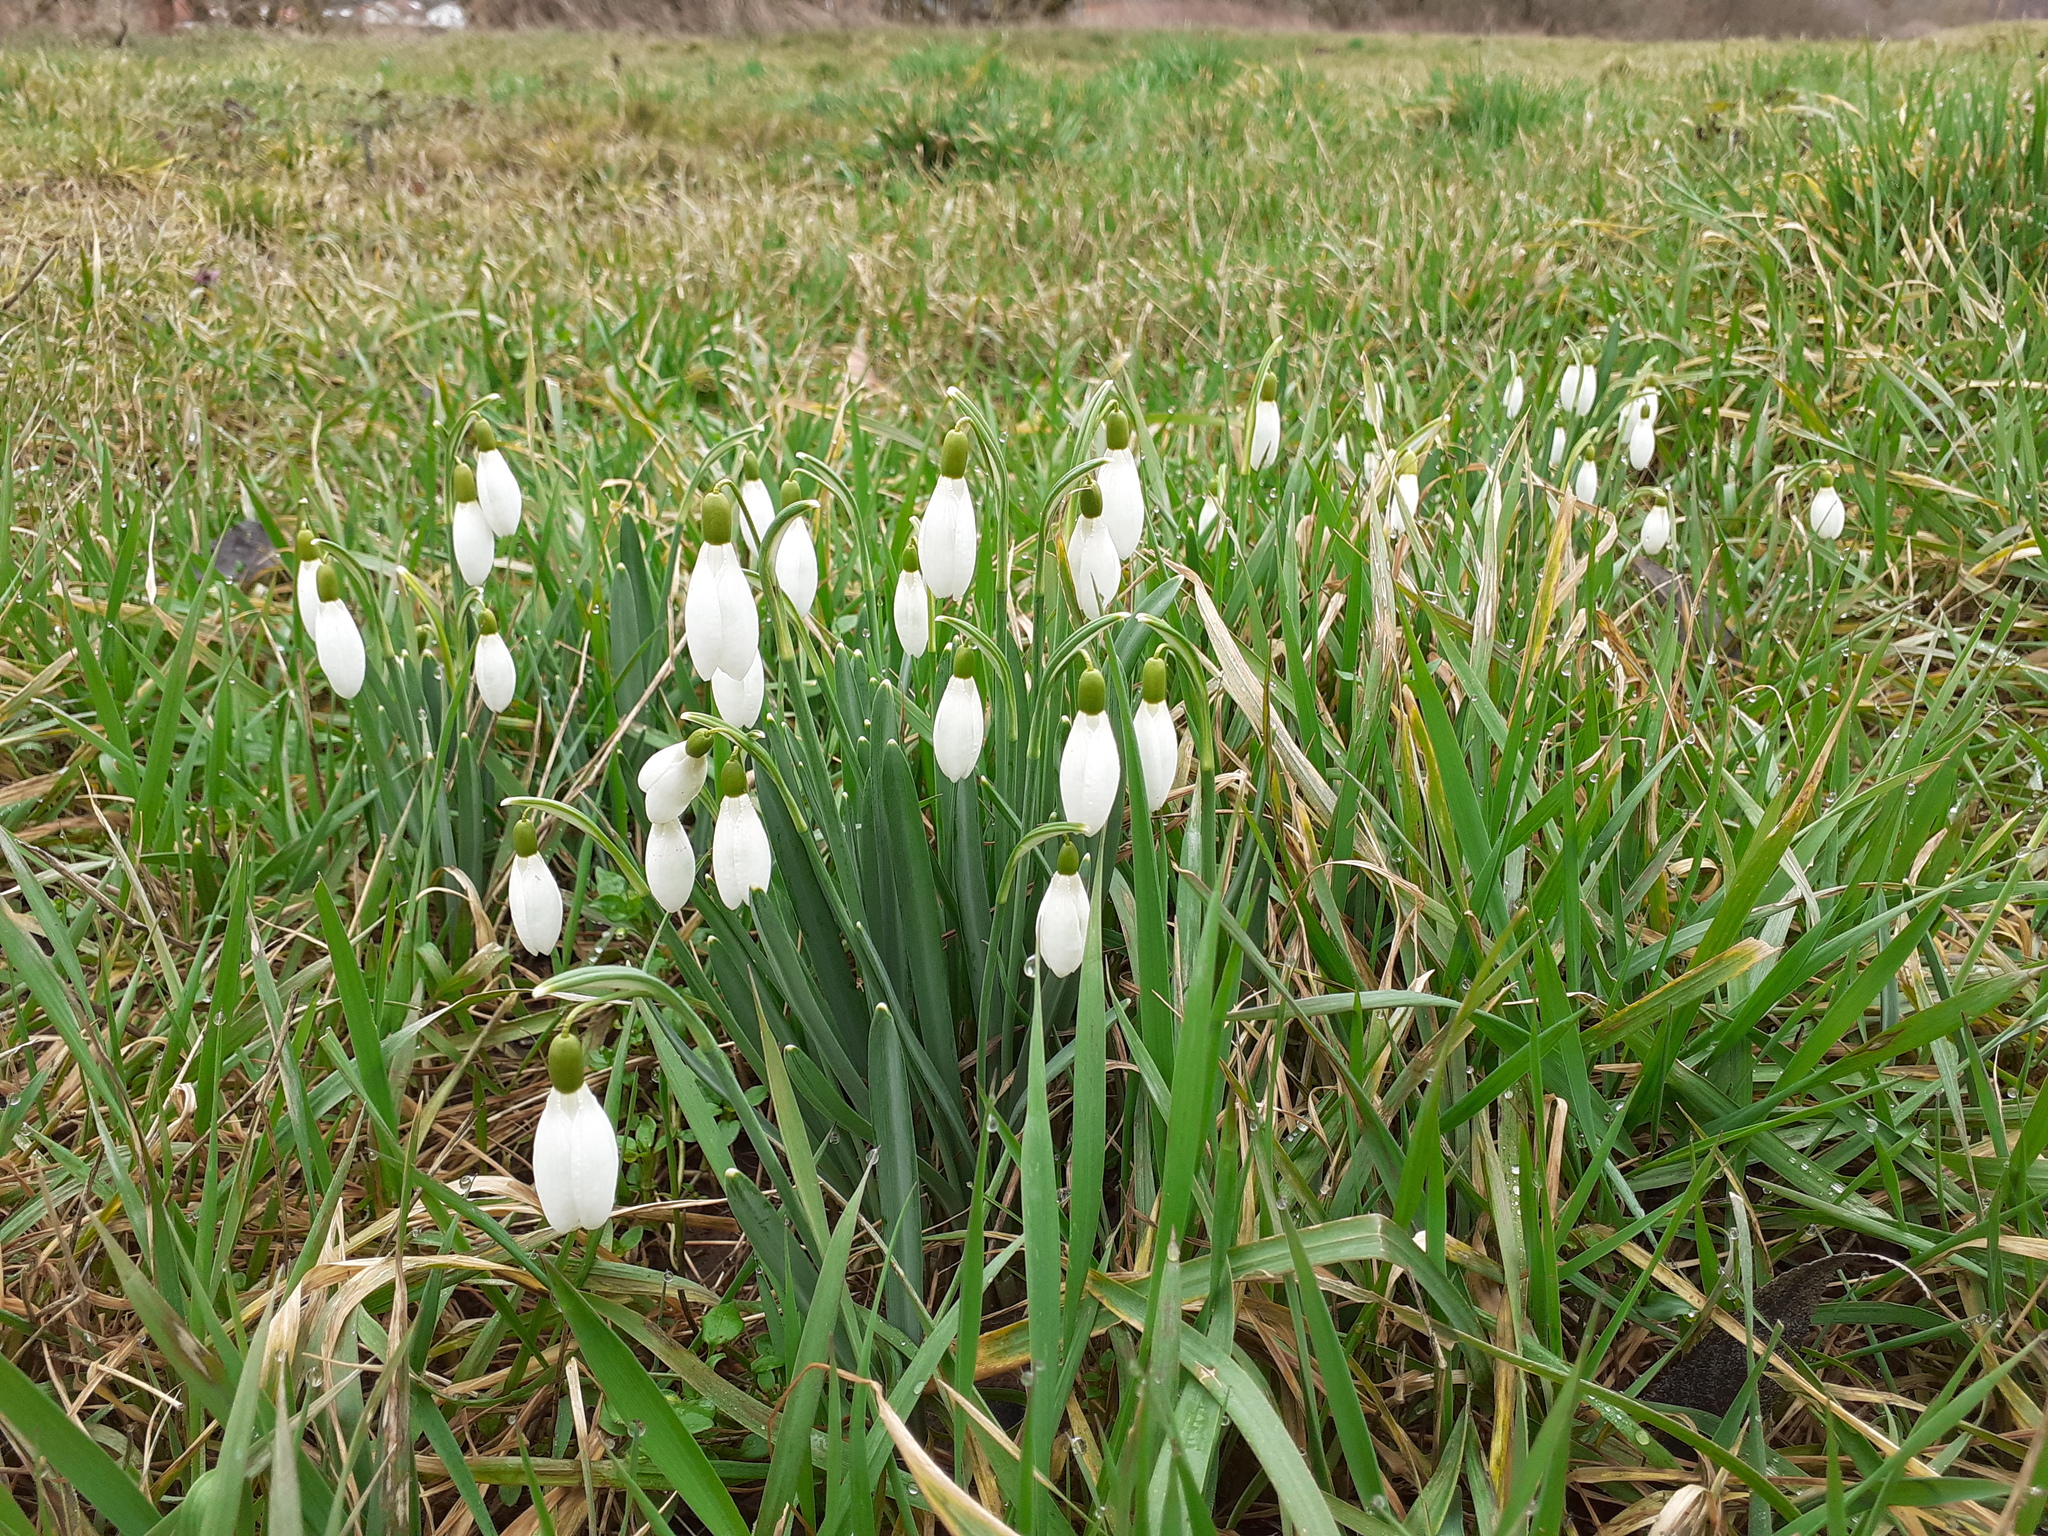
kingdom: Plantae
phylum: Tracheophyta
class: Liliopsida
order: Asparagales
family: Amaryllidaceae
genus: Galanthus
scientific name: Galanthus nivalis
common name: Snowdrop
